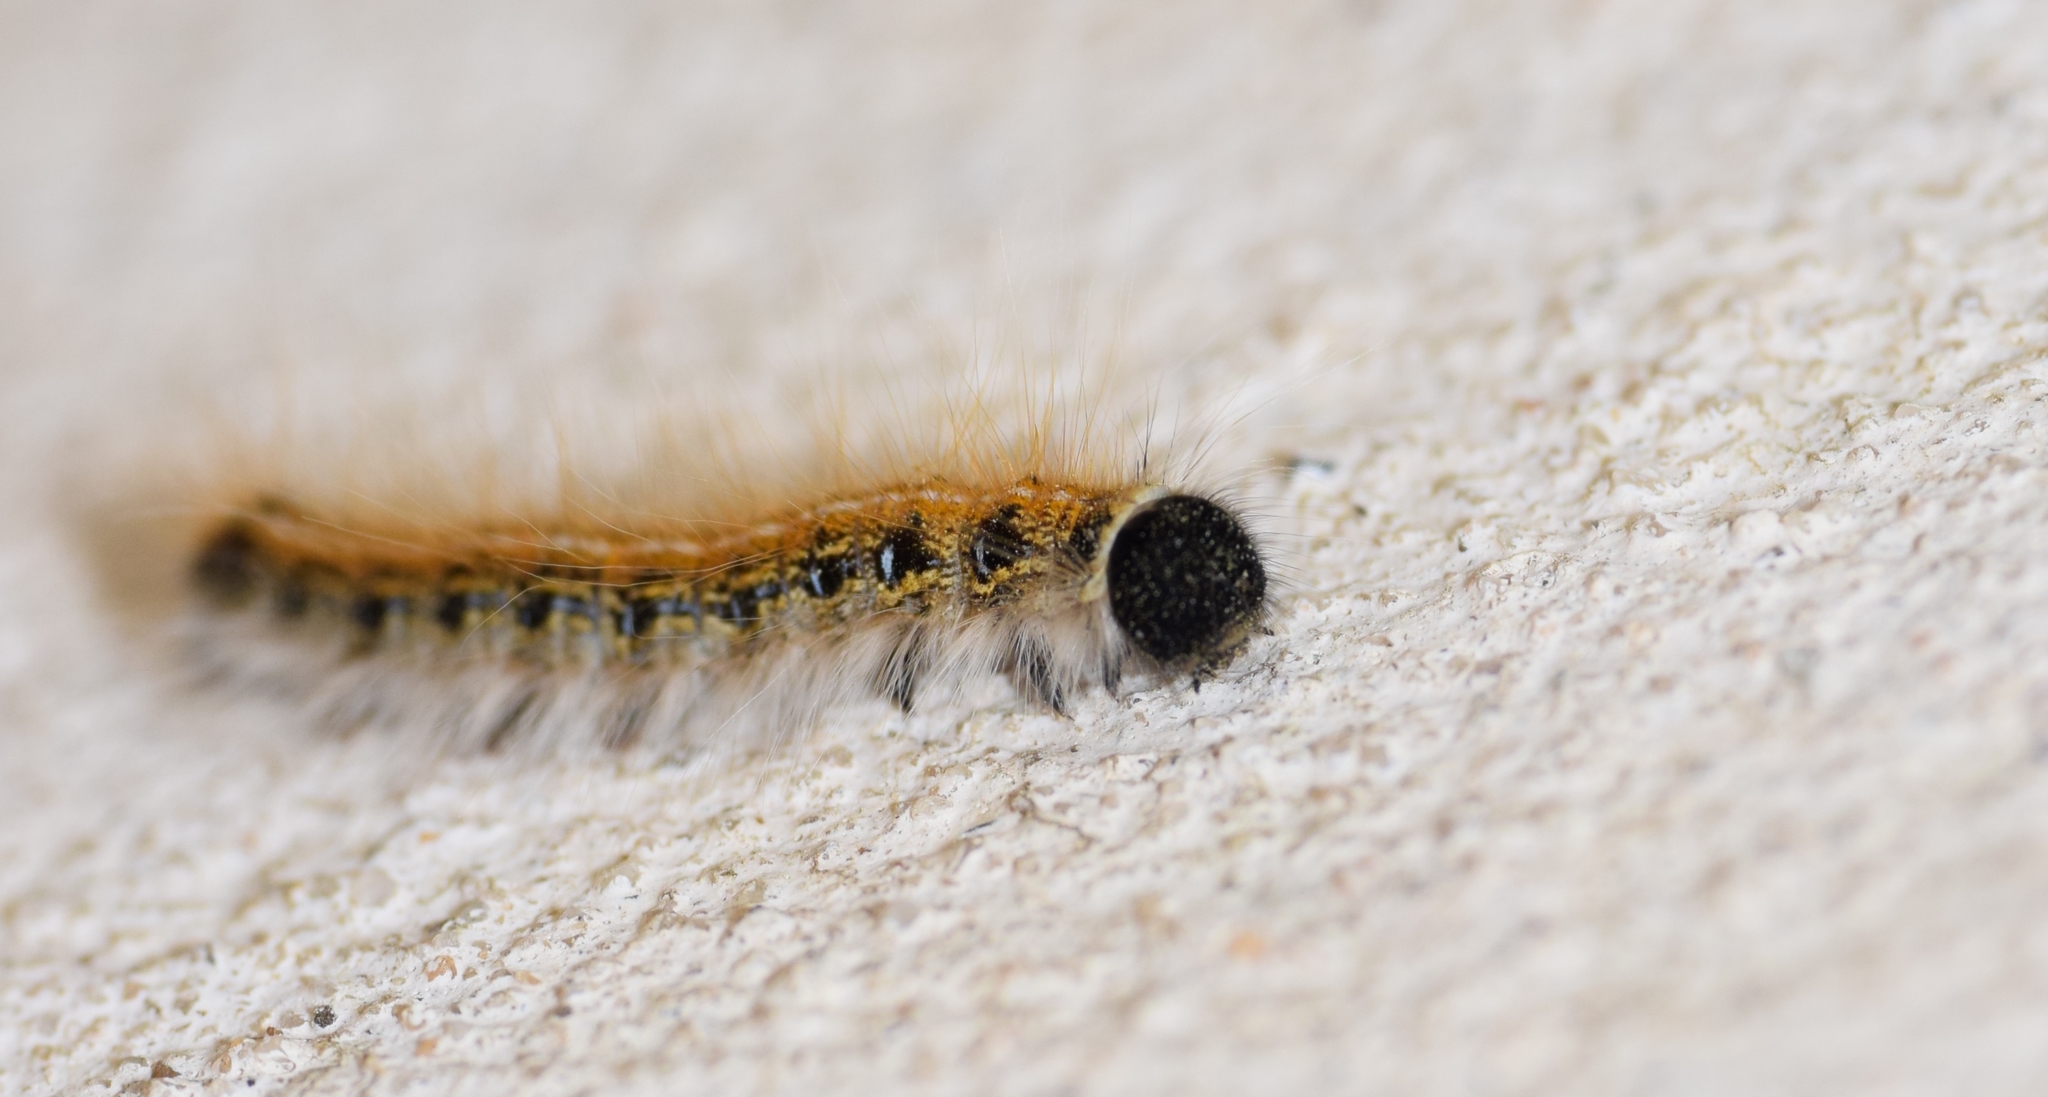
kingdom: Animalia
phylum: Arthropoda
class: Insecta
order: Lepidoptera
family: Lasiocampidae
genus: Malacosoma
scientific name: Malacosoma americana
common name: Eastern tent caterpillar moth
